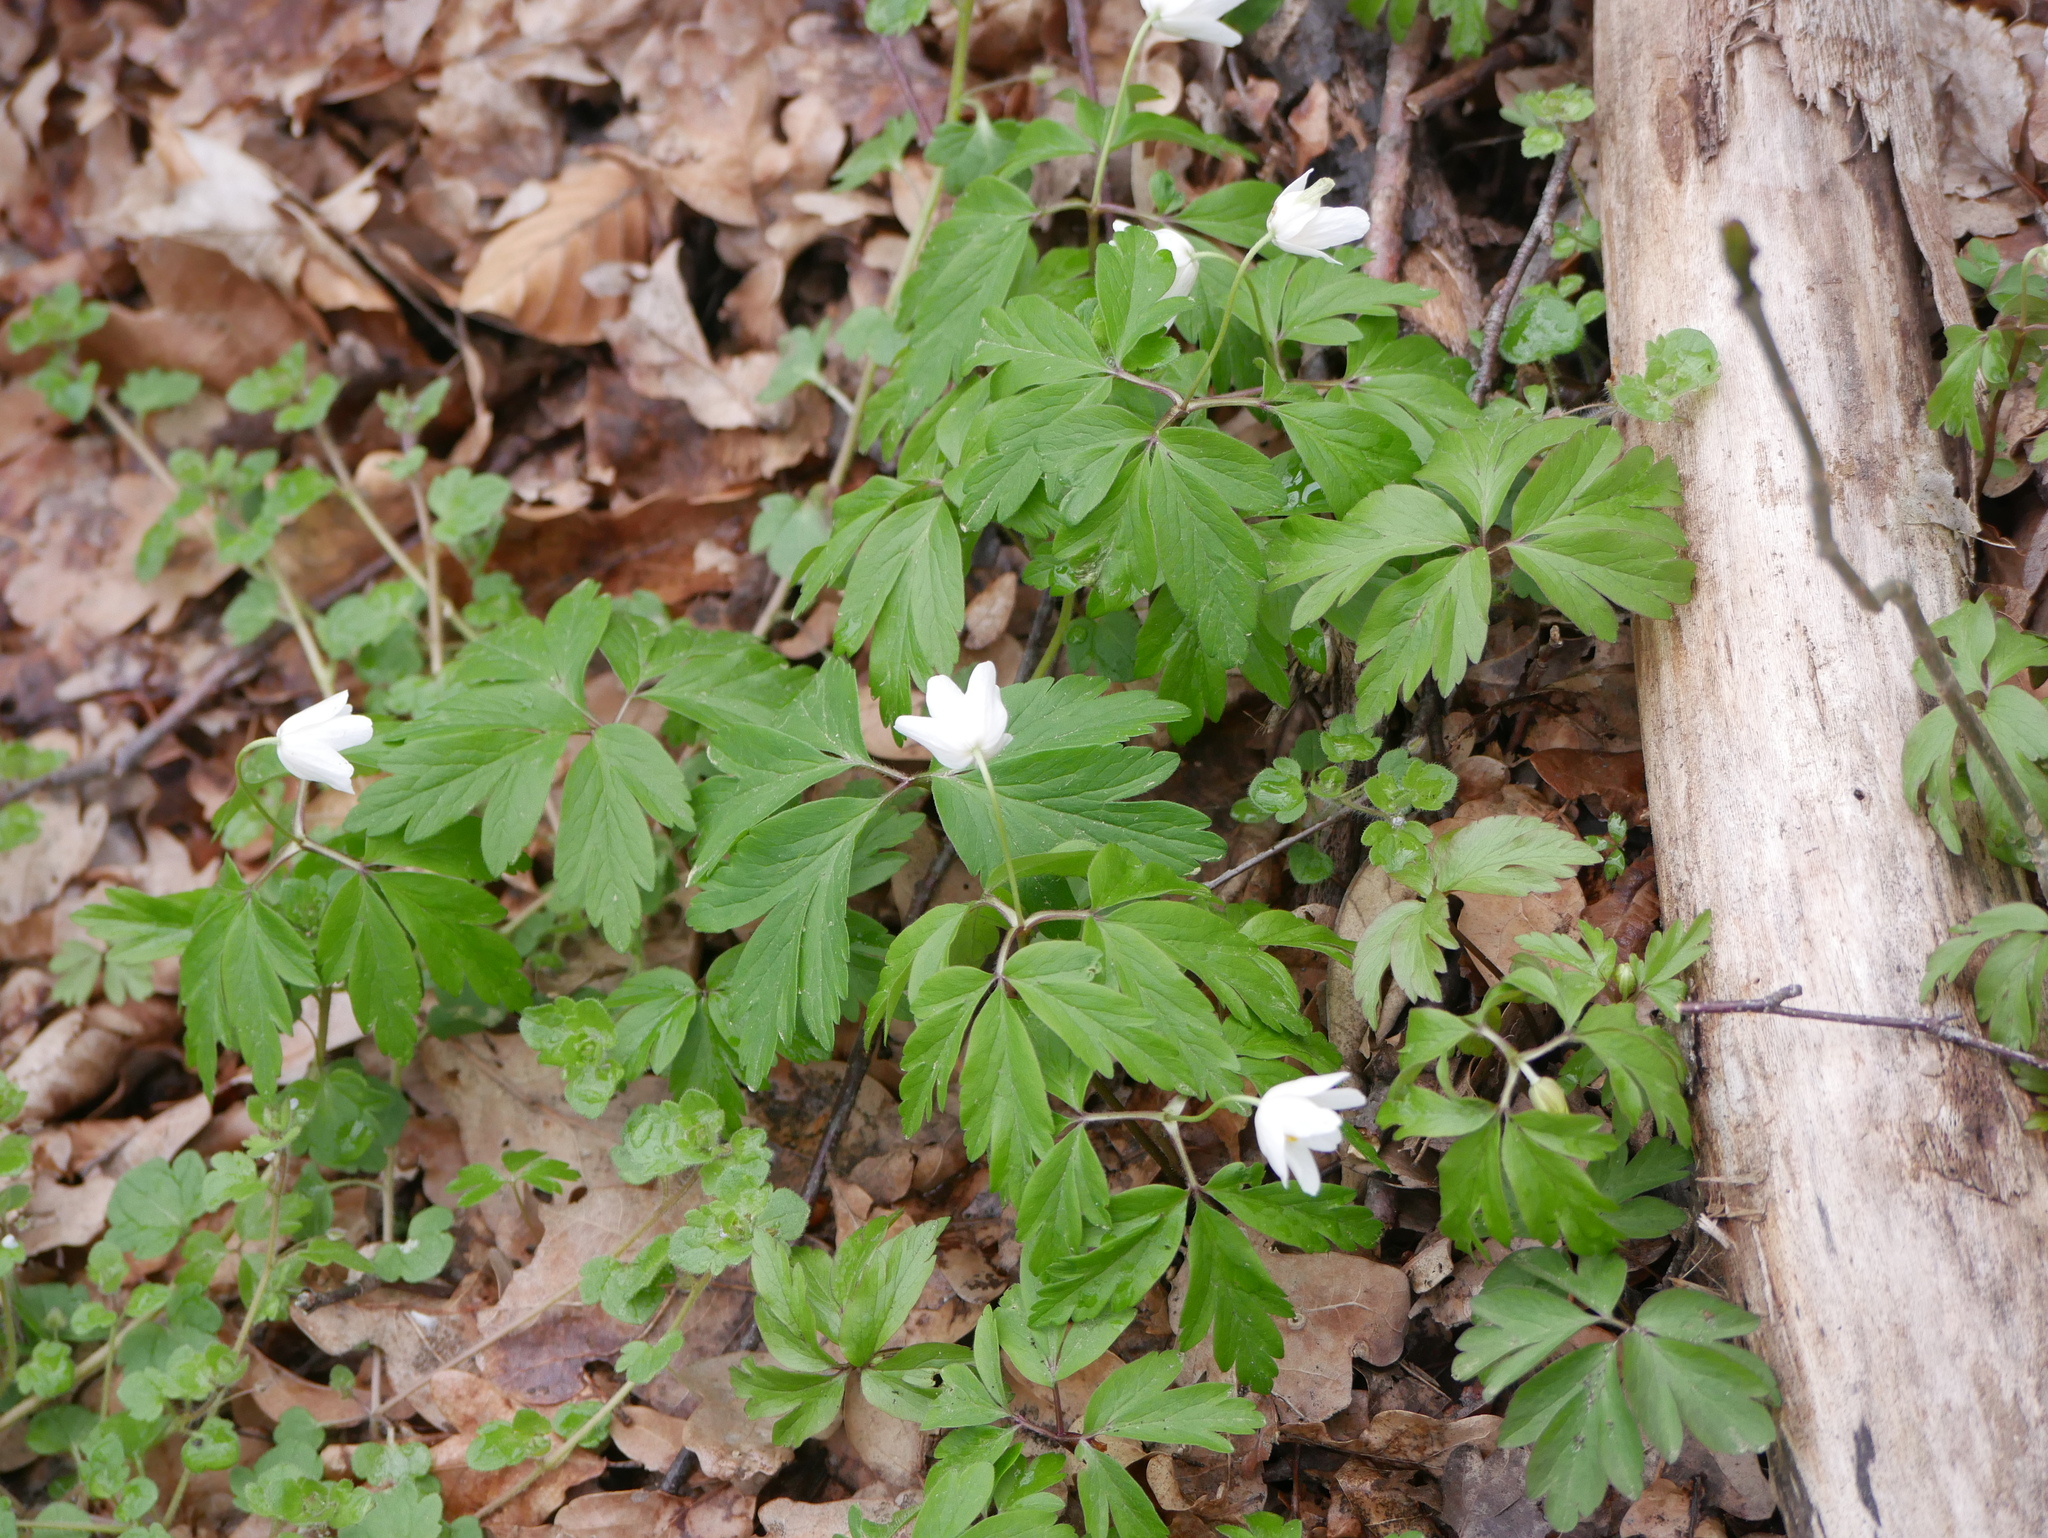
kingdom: Plantae
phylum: Tracheophyta
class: Magnoliopsida
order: Ranunculales
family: Ranunculaceae
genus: Anemone
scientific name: Anemone nemorosa
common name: Wood anemone
